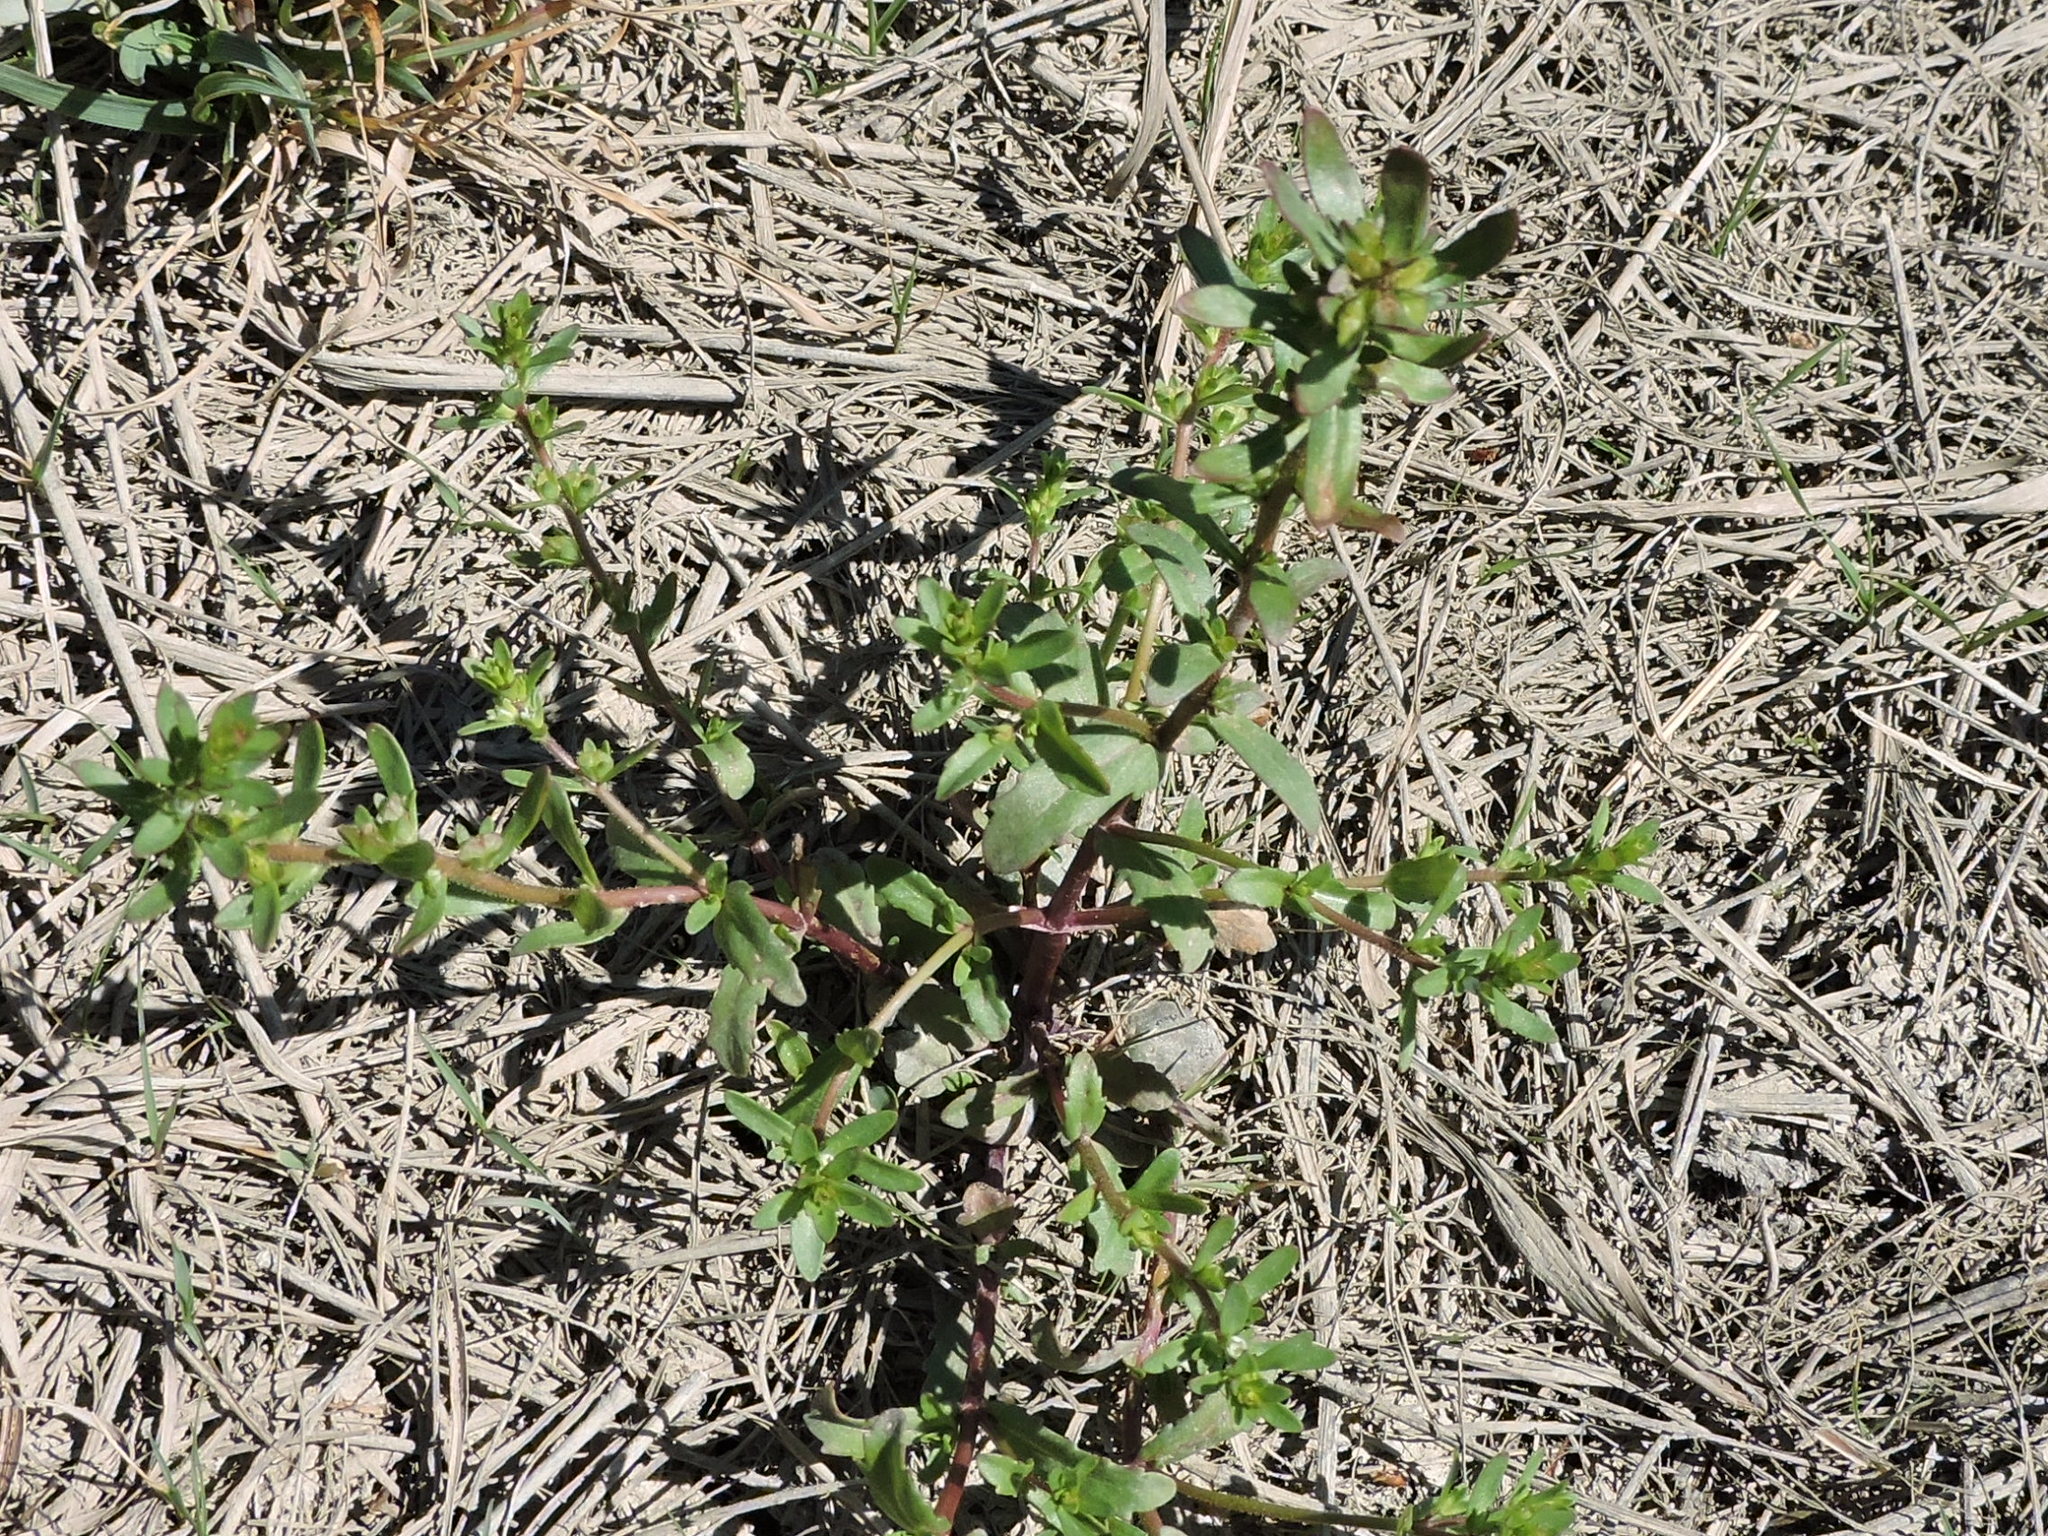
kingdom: Plantae
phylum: Tracheophyta
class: Magnoliopsida
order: Lamiales
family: Plantaginaceae
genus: Veronica
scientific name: Veronica peregrina
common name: Neckweed
